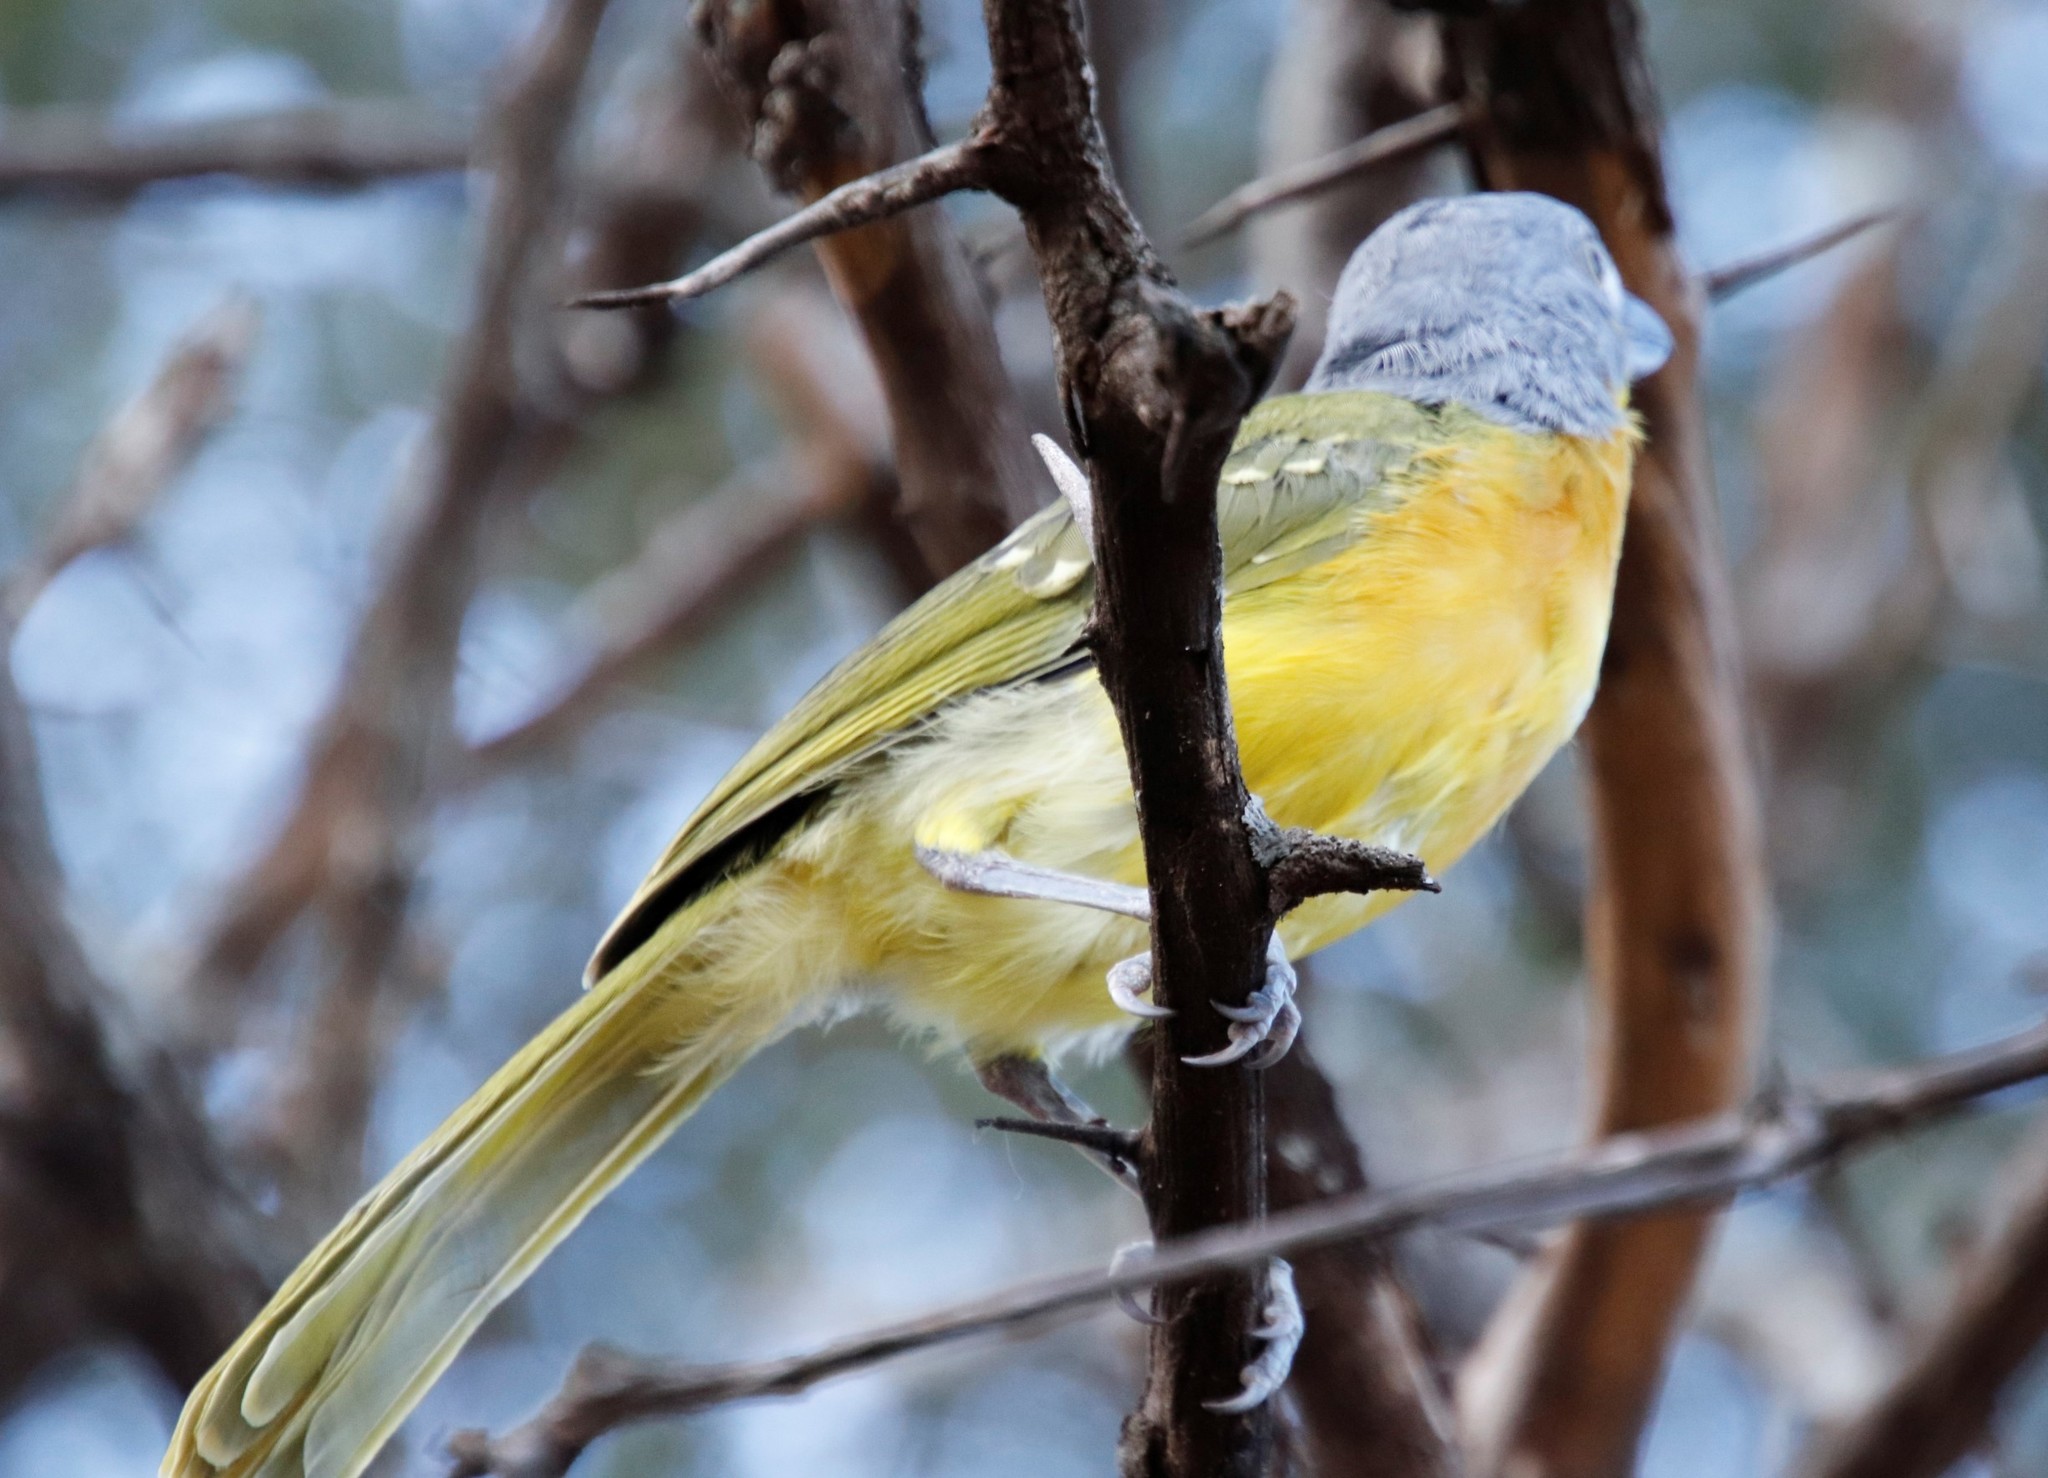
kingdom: Animalia
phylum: Chordata
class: Aves
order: Passeriformes
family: Malaconotidae
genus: Malaconotus
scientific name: Malaconotus blanchoti
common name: Grey-headed bushshrike
